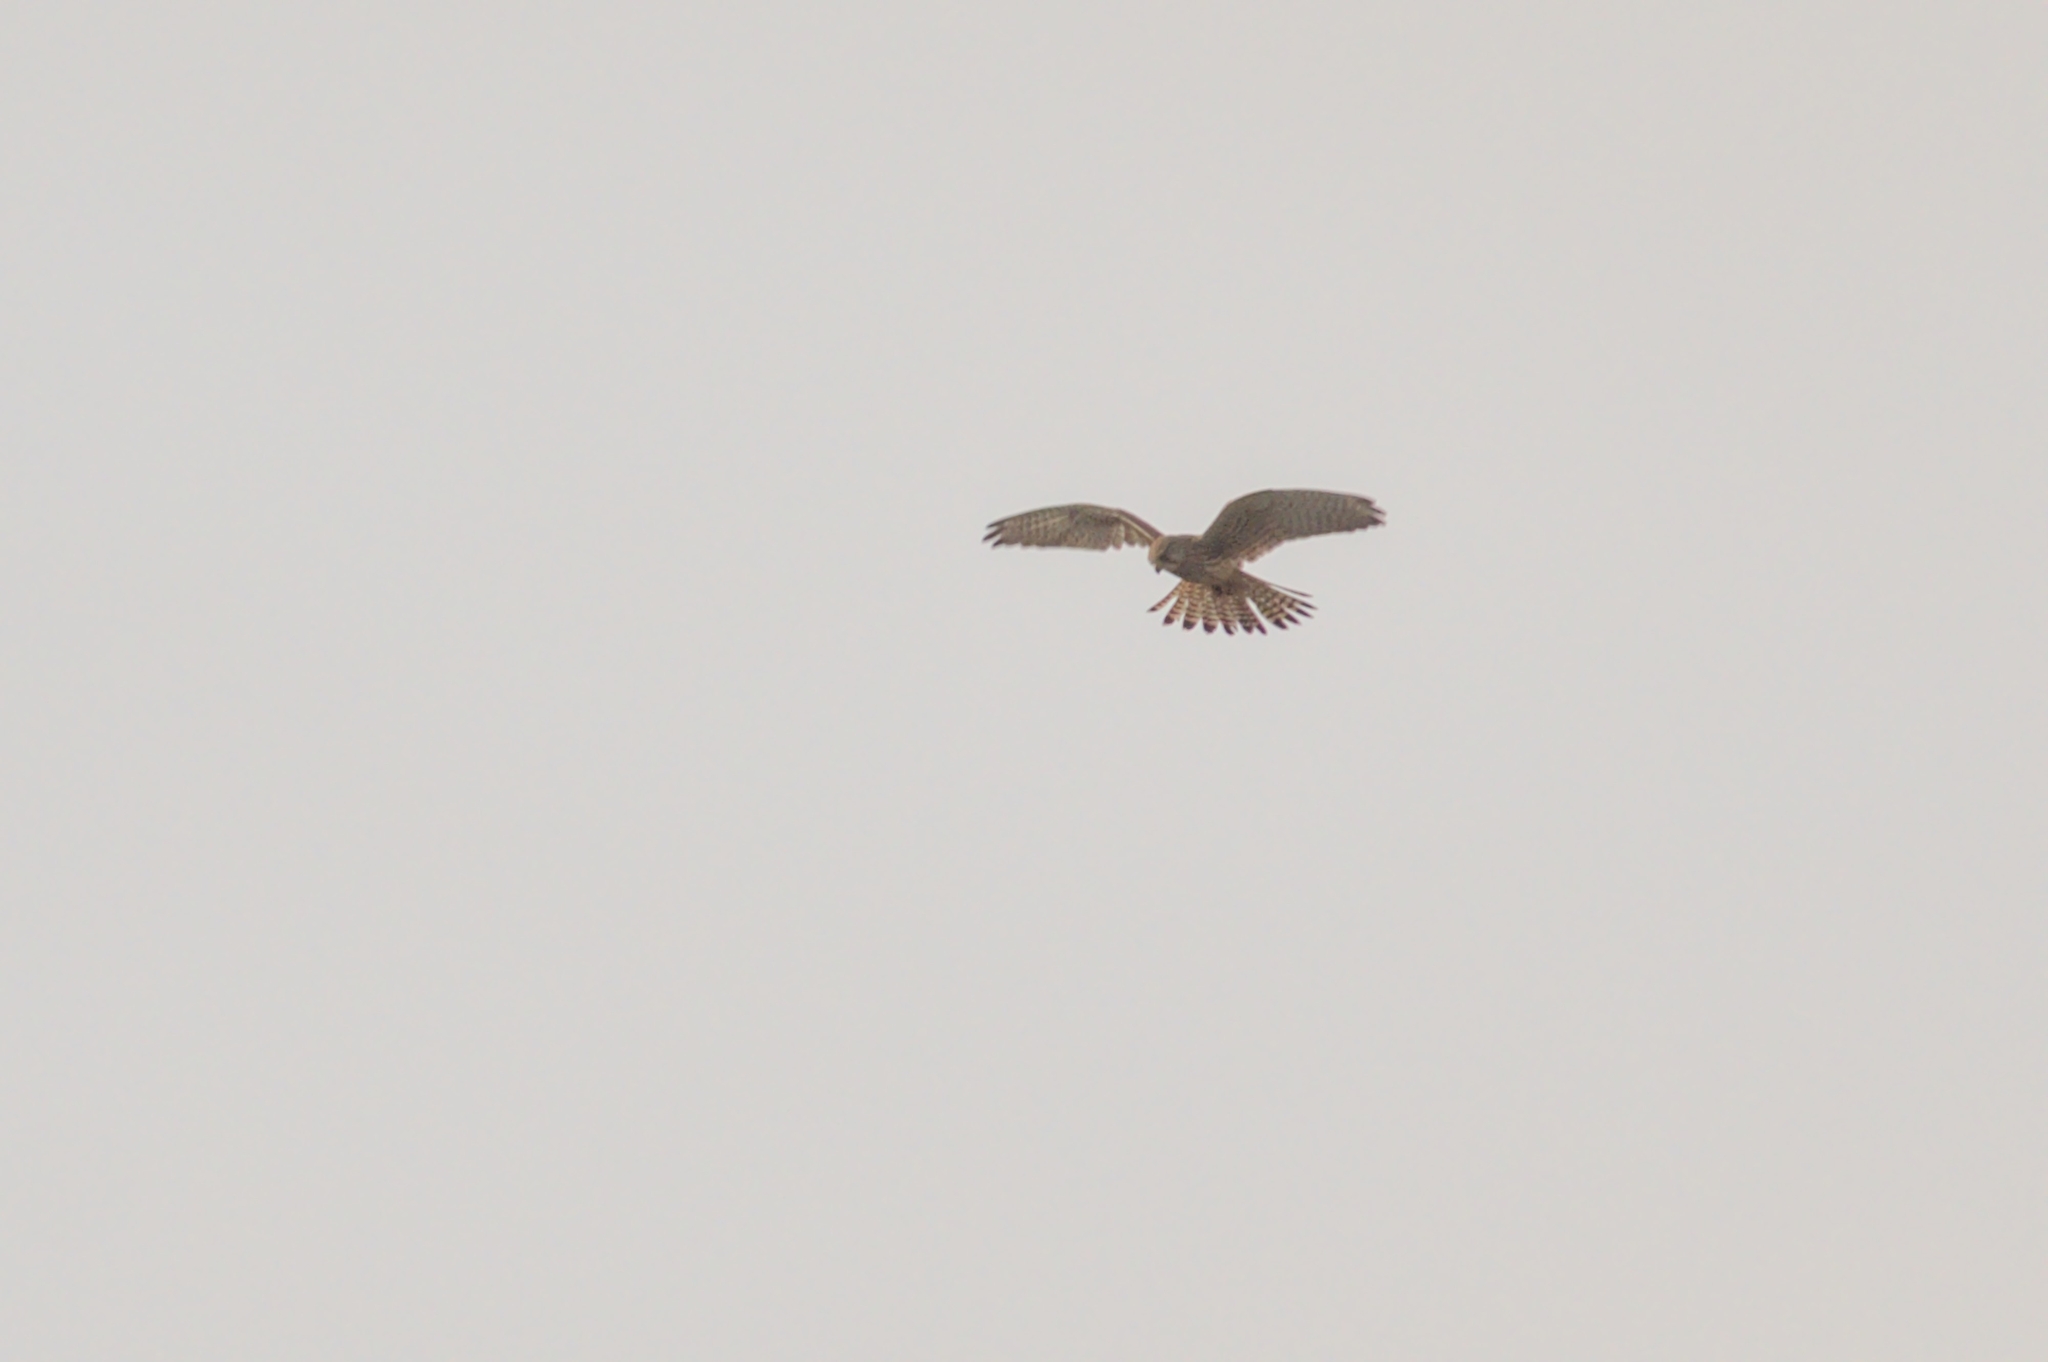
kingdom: Animalia
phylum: Chordata
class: Aves
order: Falconiformes
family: Falconidae
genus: Falco
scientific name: Falco tinnunculus
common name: Common kestrel
